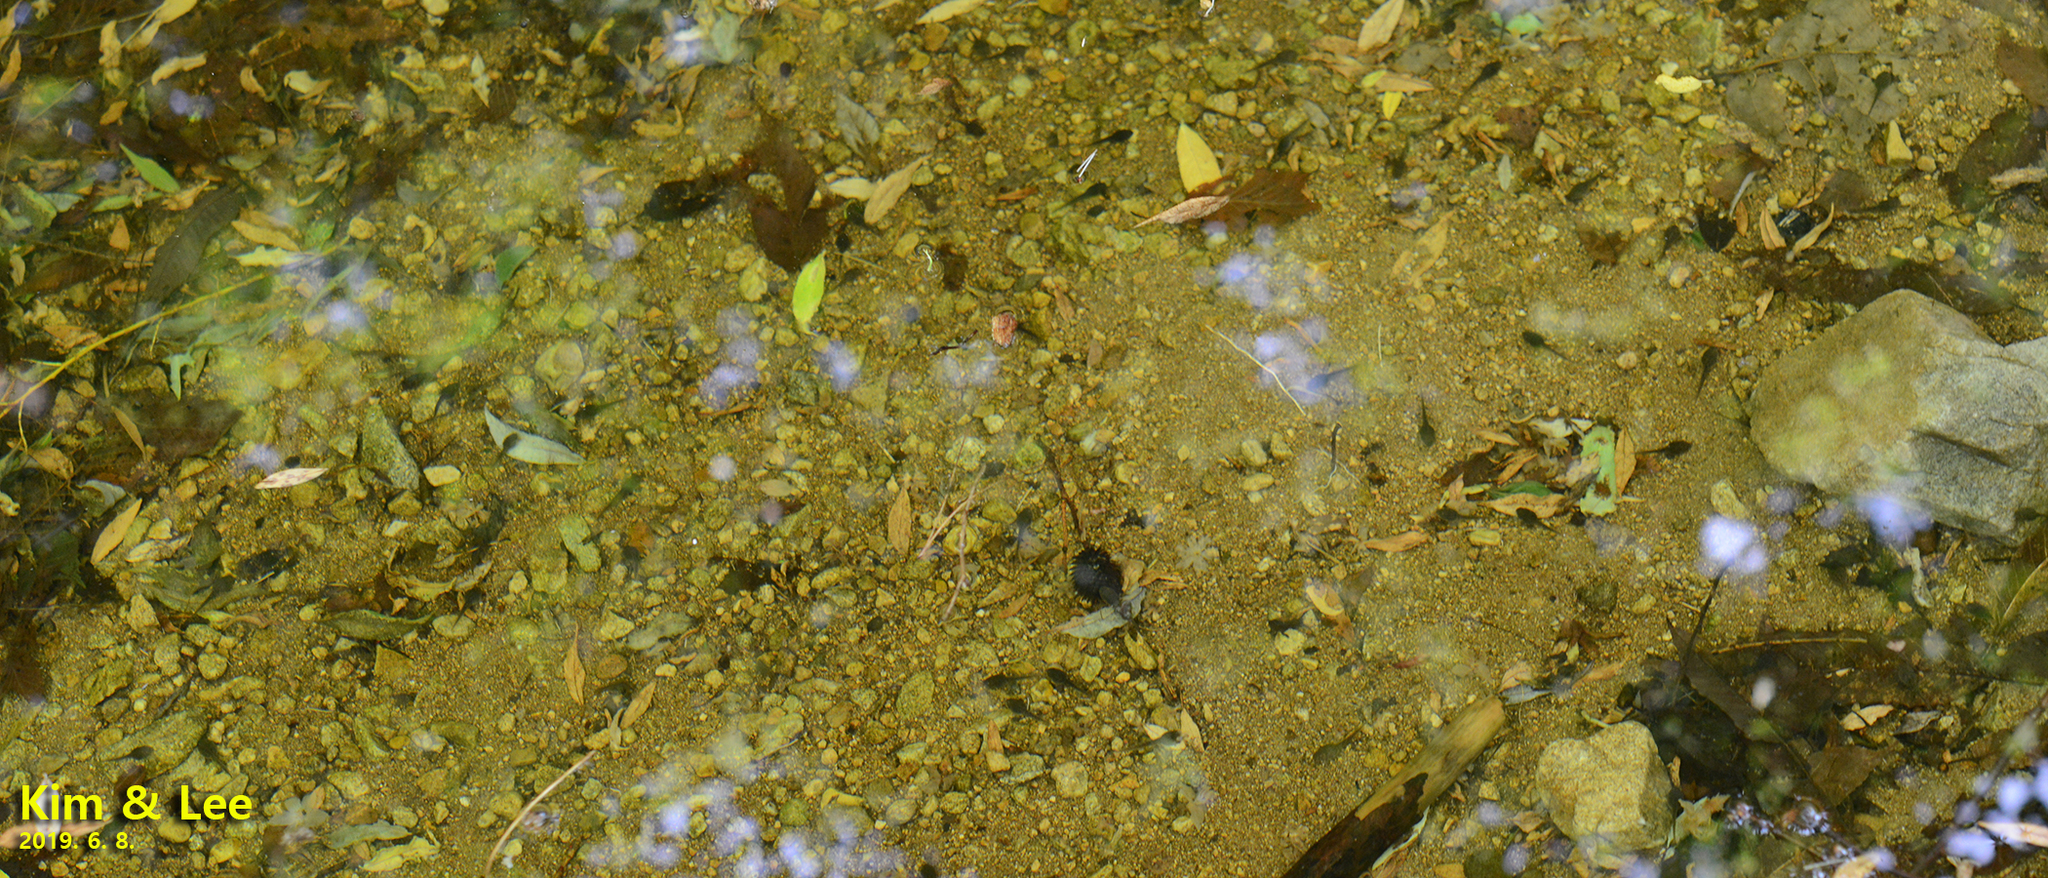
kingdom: Animalia
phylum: Chordata
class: Amphibia
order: Anura
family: Ranidae
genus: Rana
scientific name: Rana huanrenensis
